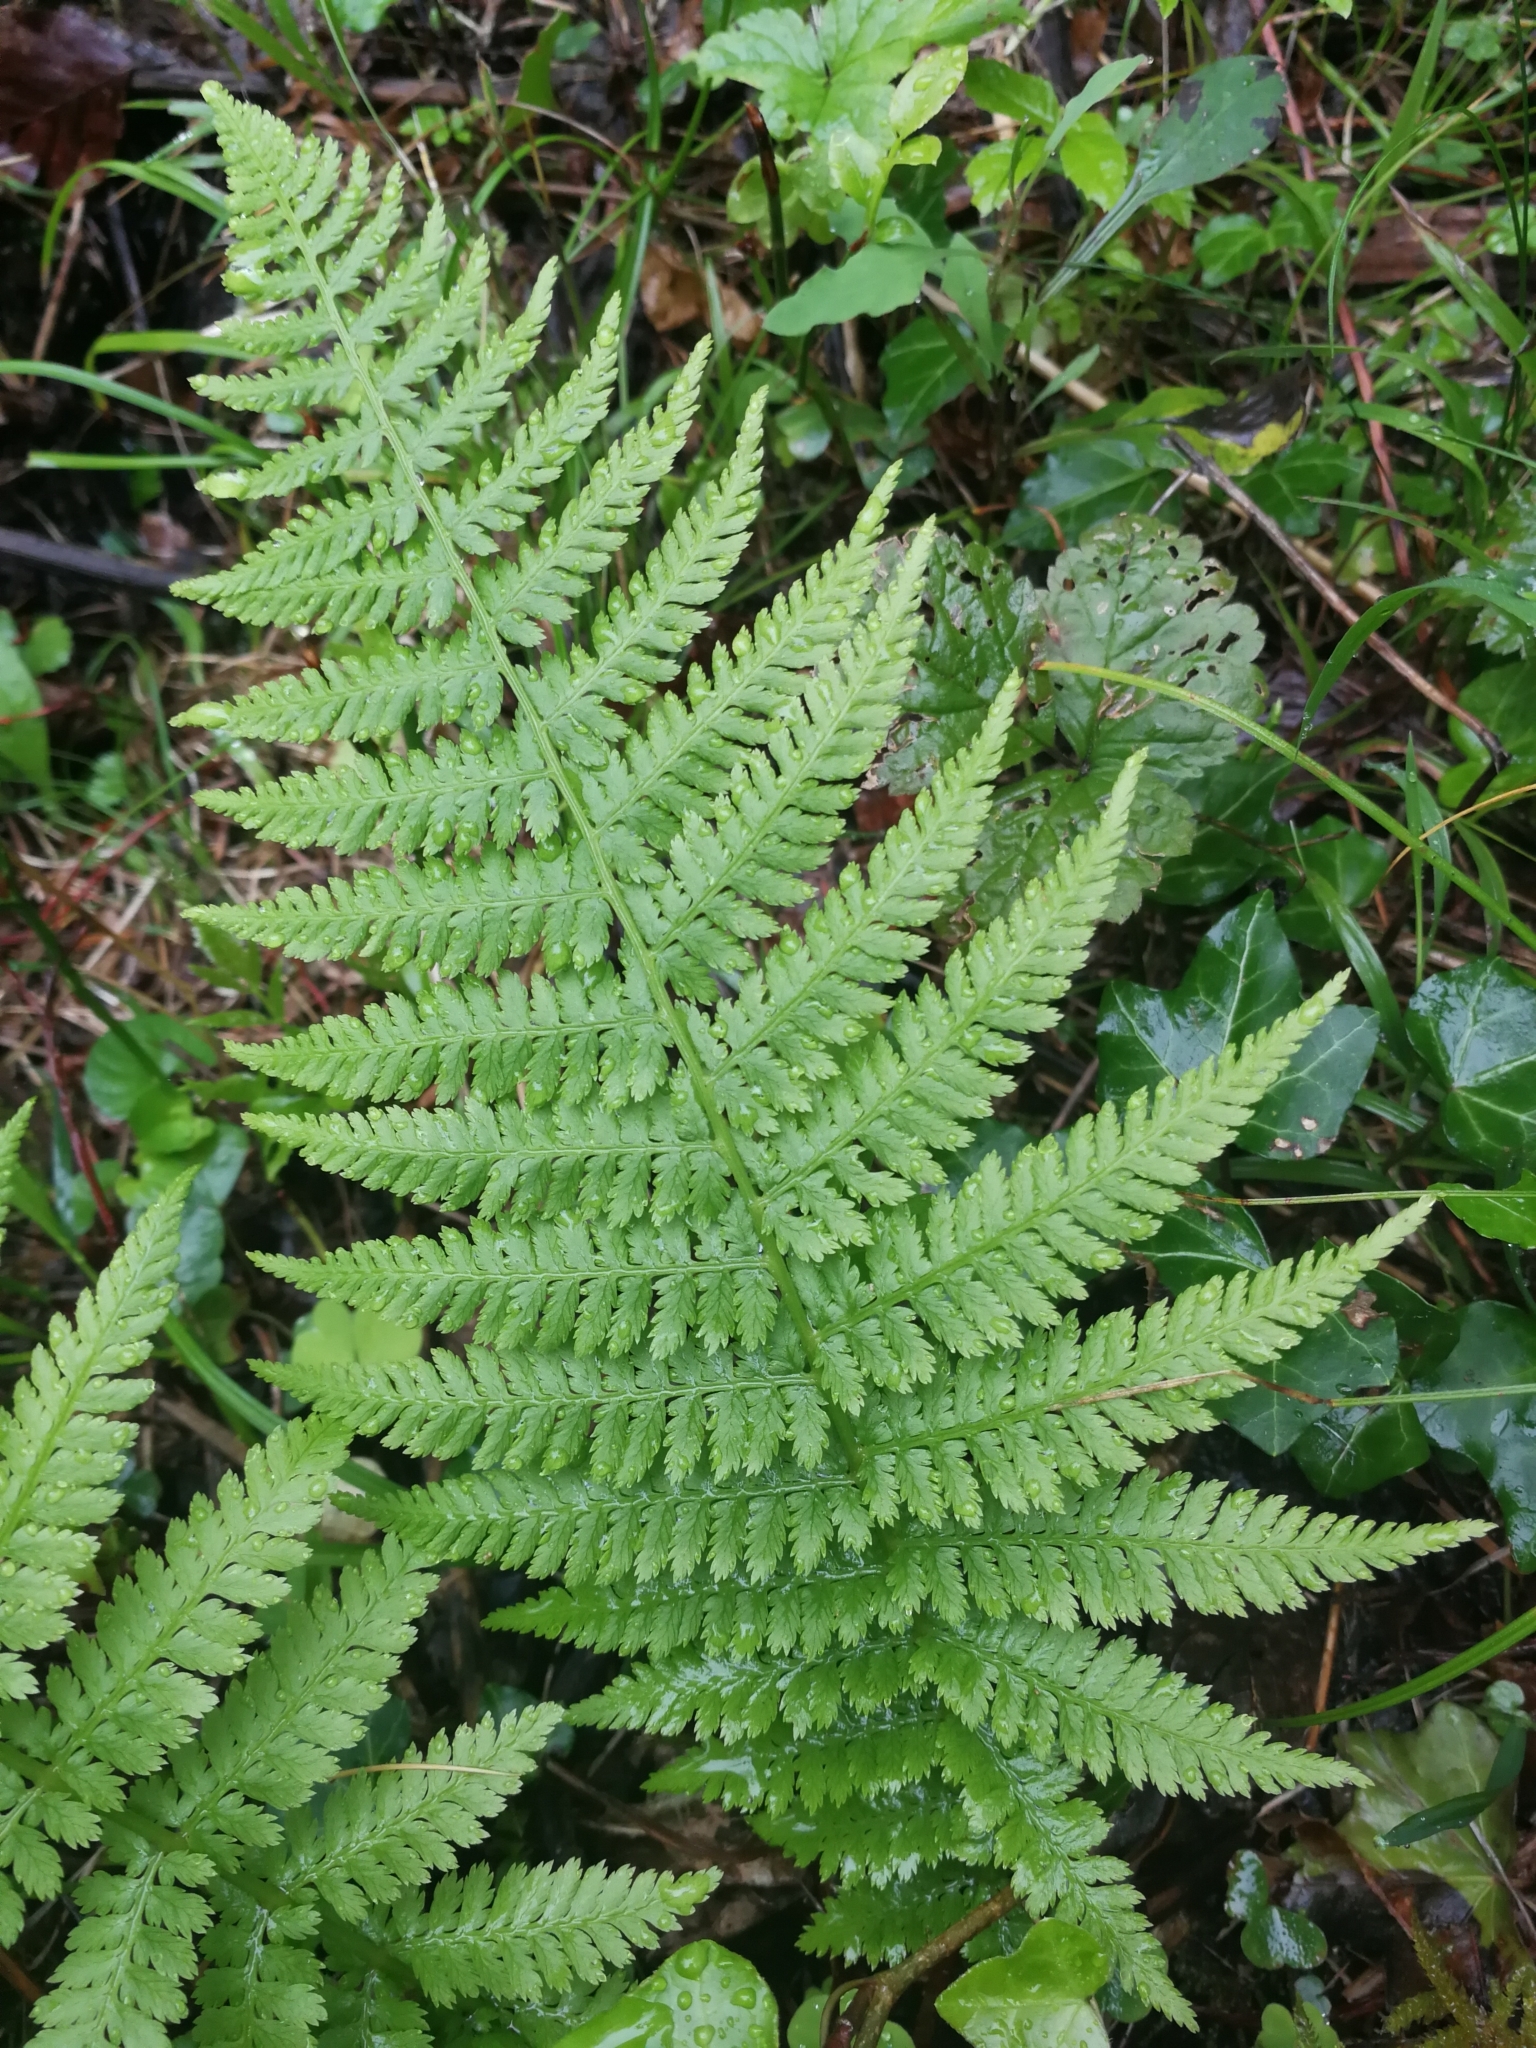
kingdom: Plantae
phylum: Tracheophyta
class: Polypodiopsida
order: Polypodiales
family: Athyriaceae
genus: Athyrium
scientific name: Athyrium filix-femina
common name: Lady fern
